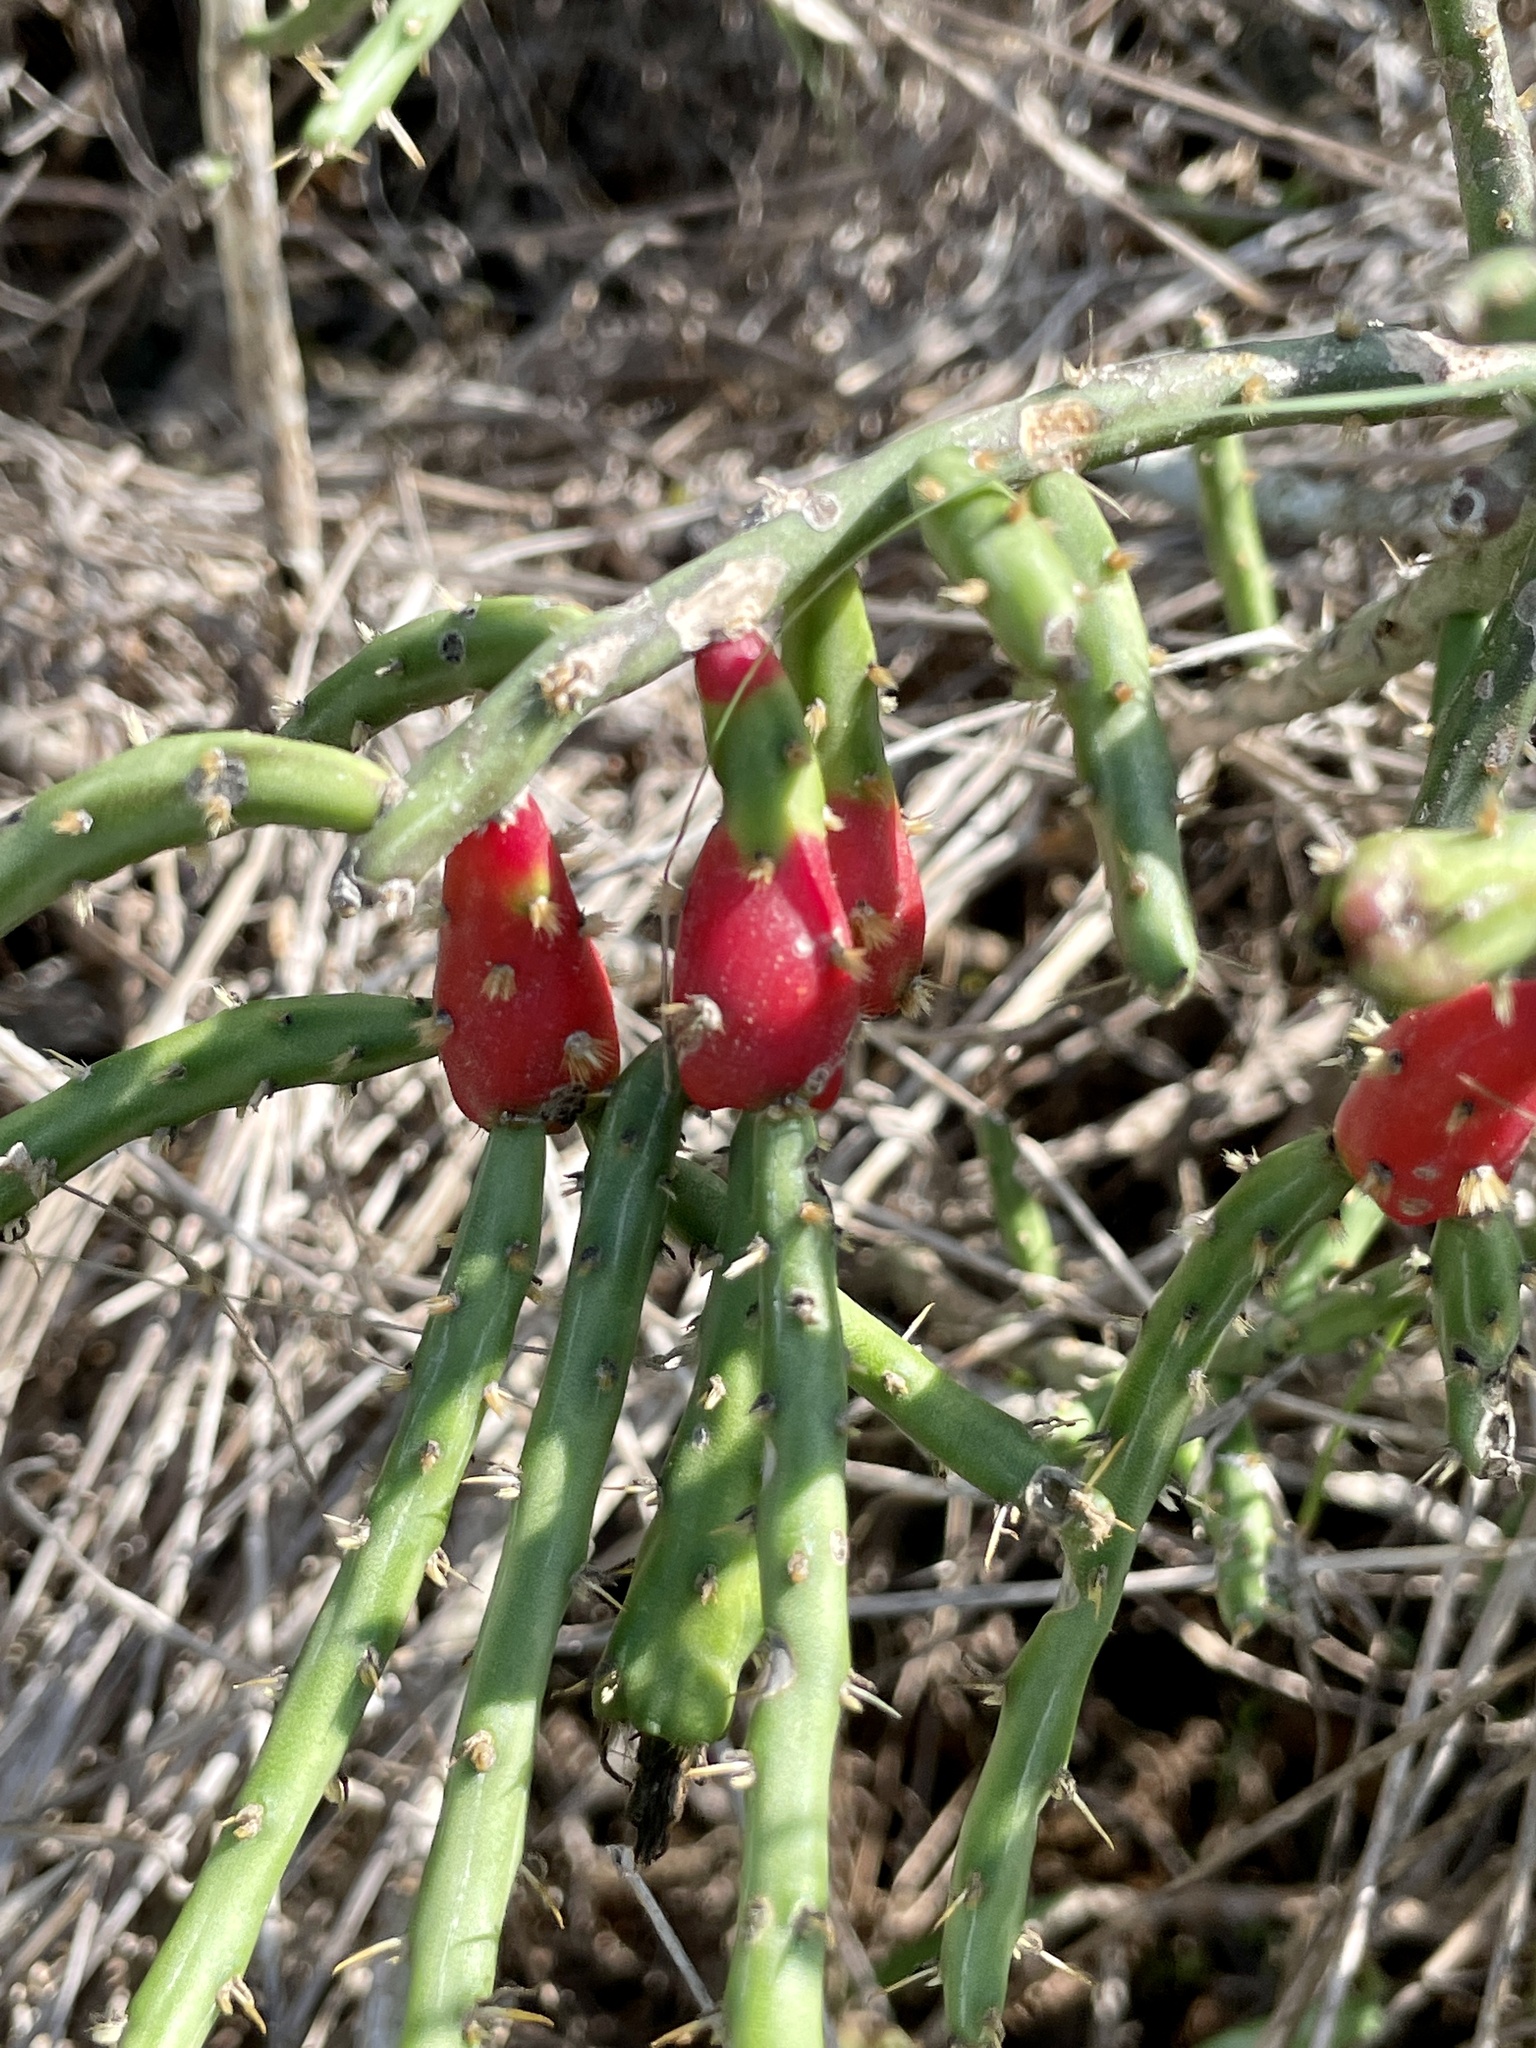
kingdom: Plantae
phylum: Tracheophyta
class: Magnoliopsida
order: Caryophyllales
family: Cactaceae
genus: Cylindropuntia
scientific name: Cylindropuntia leptocaulis
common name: Christmas cactus
